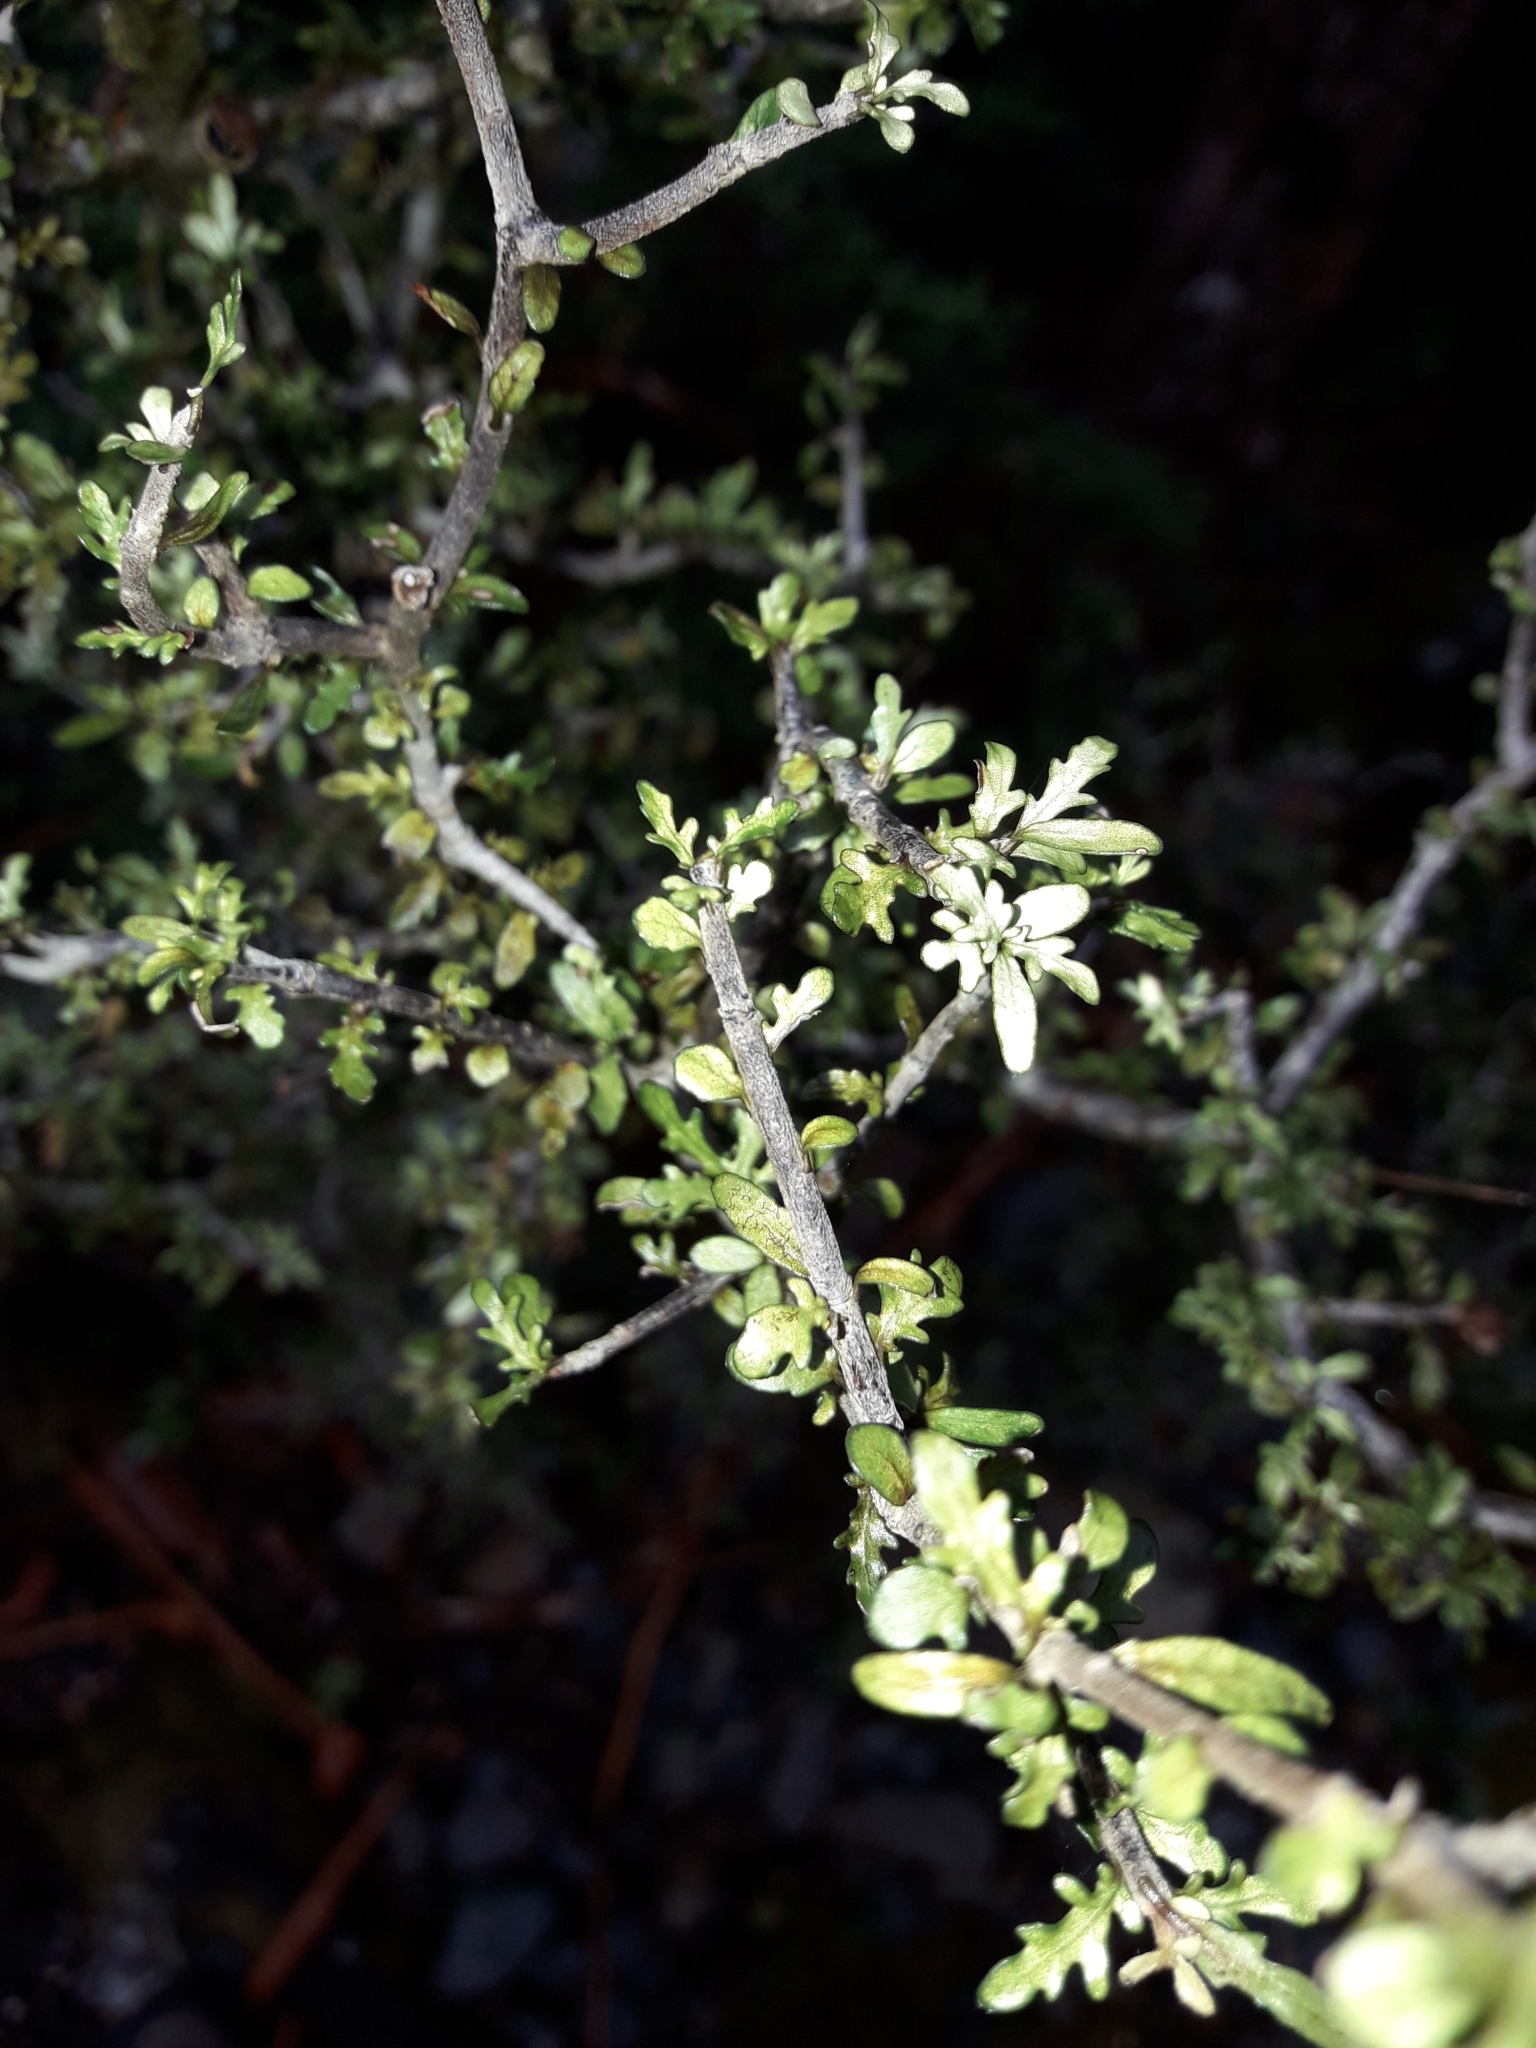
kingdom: Plantae
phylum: Tracheophyta
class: Magnoliopsida
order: Apiales
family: Pittosporaceae
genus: Pittosporum
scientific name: Pittosporum divaricatum
